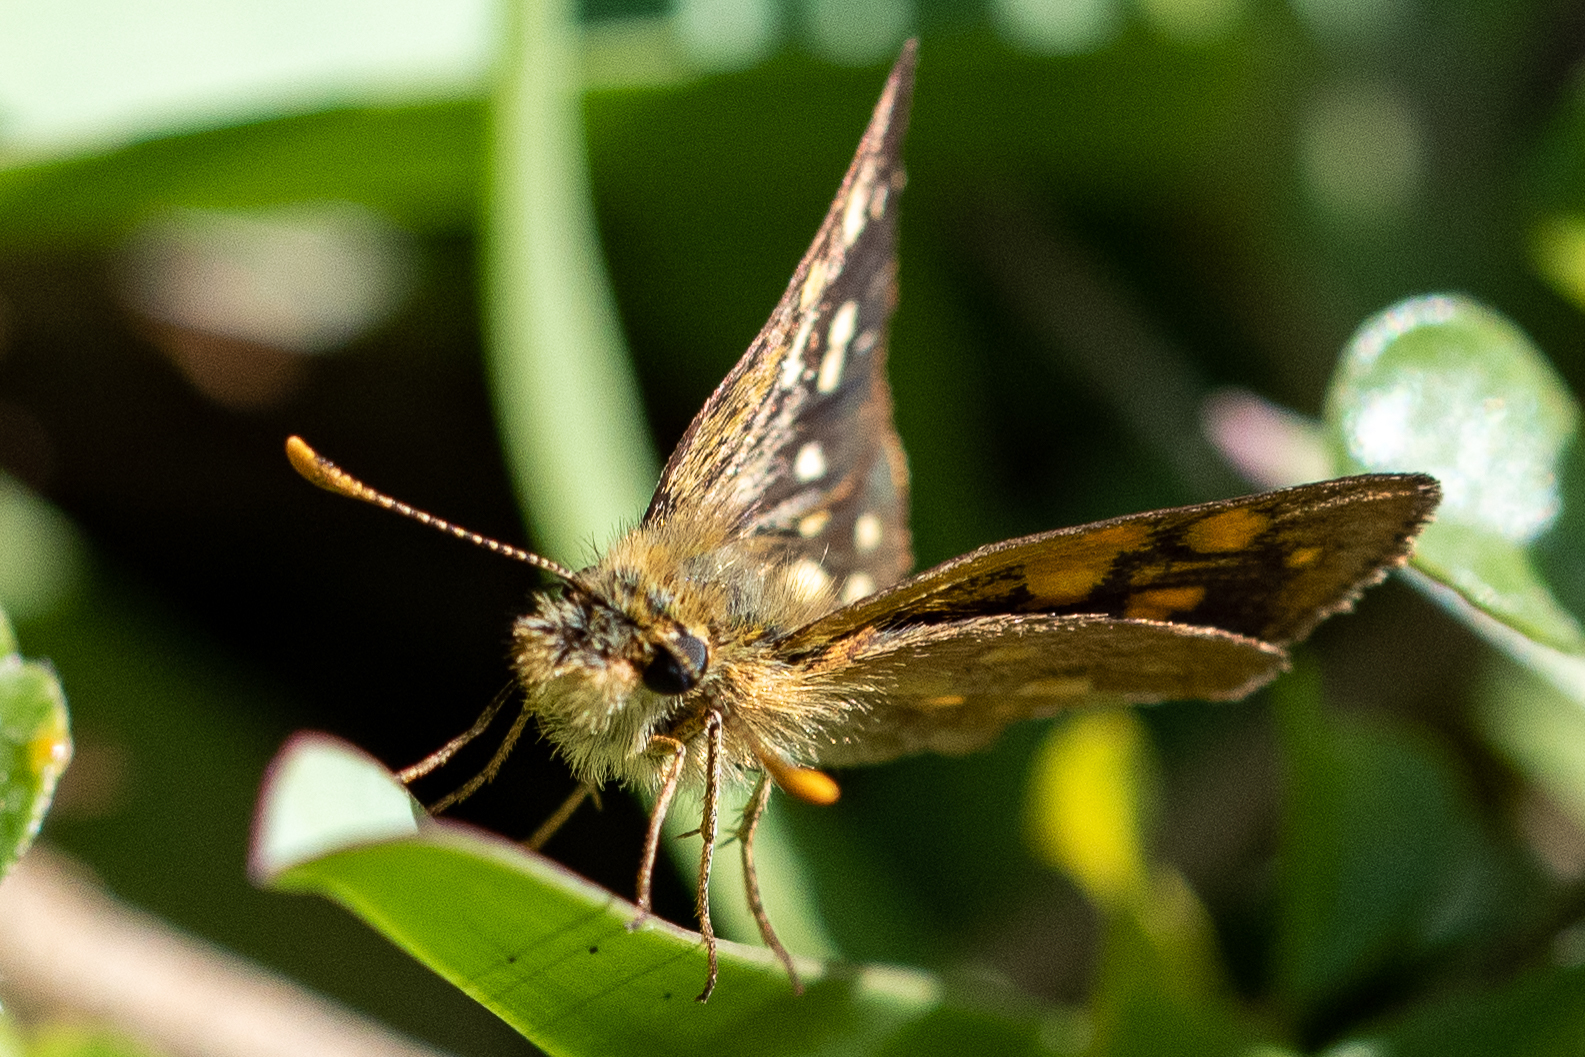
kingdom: Animalia
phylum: Arthropoda
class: Insecta
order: Lepidoptera
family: Hesperiidae
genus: Metisella
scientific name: Metisella malgacha
